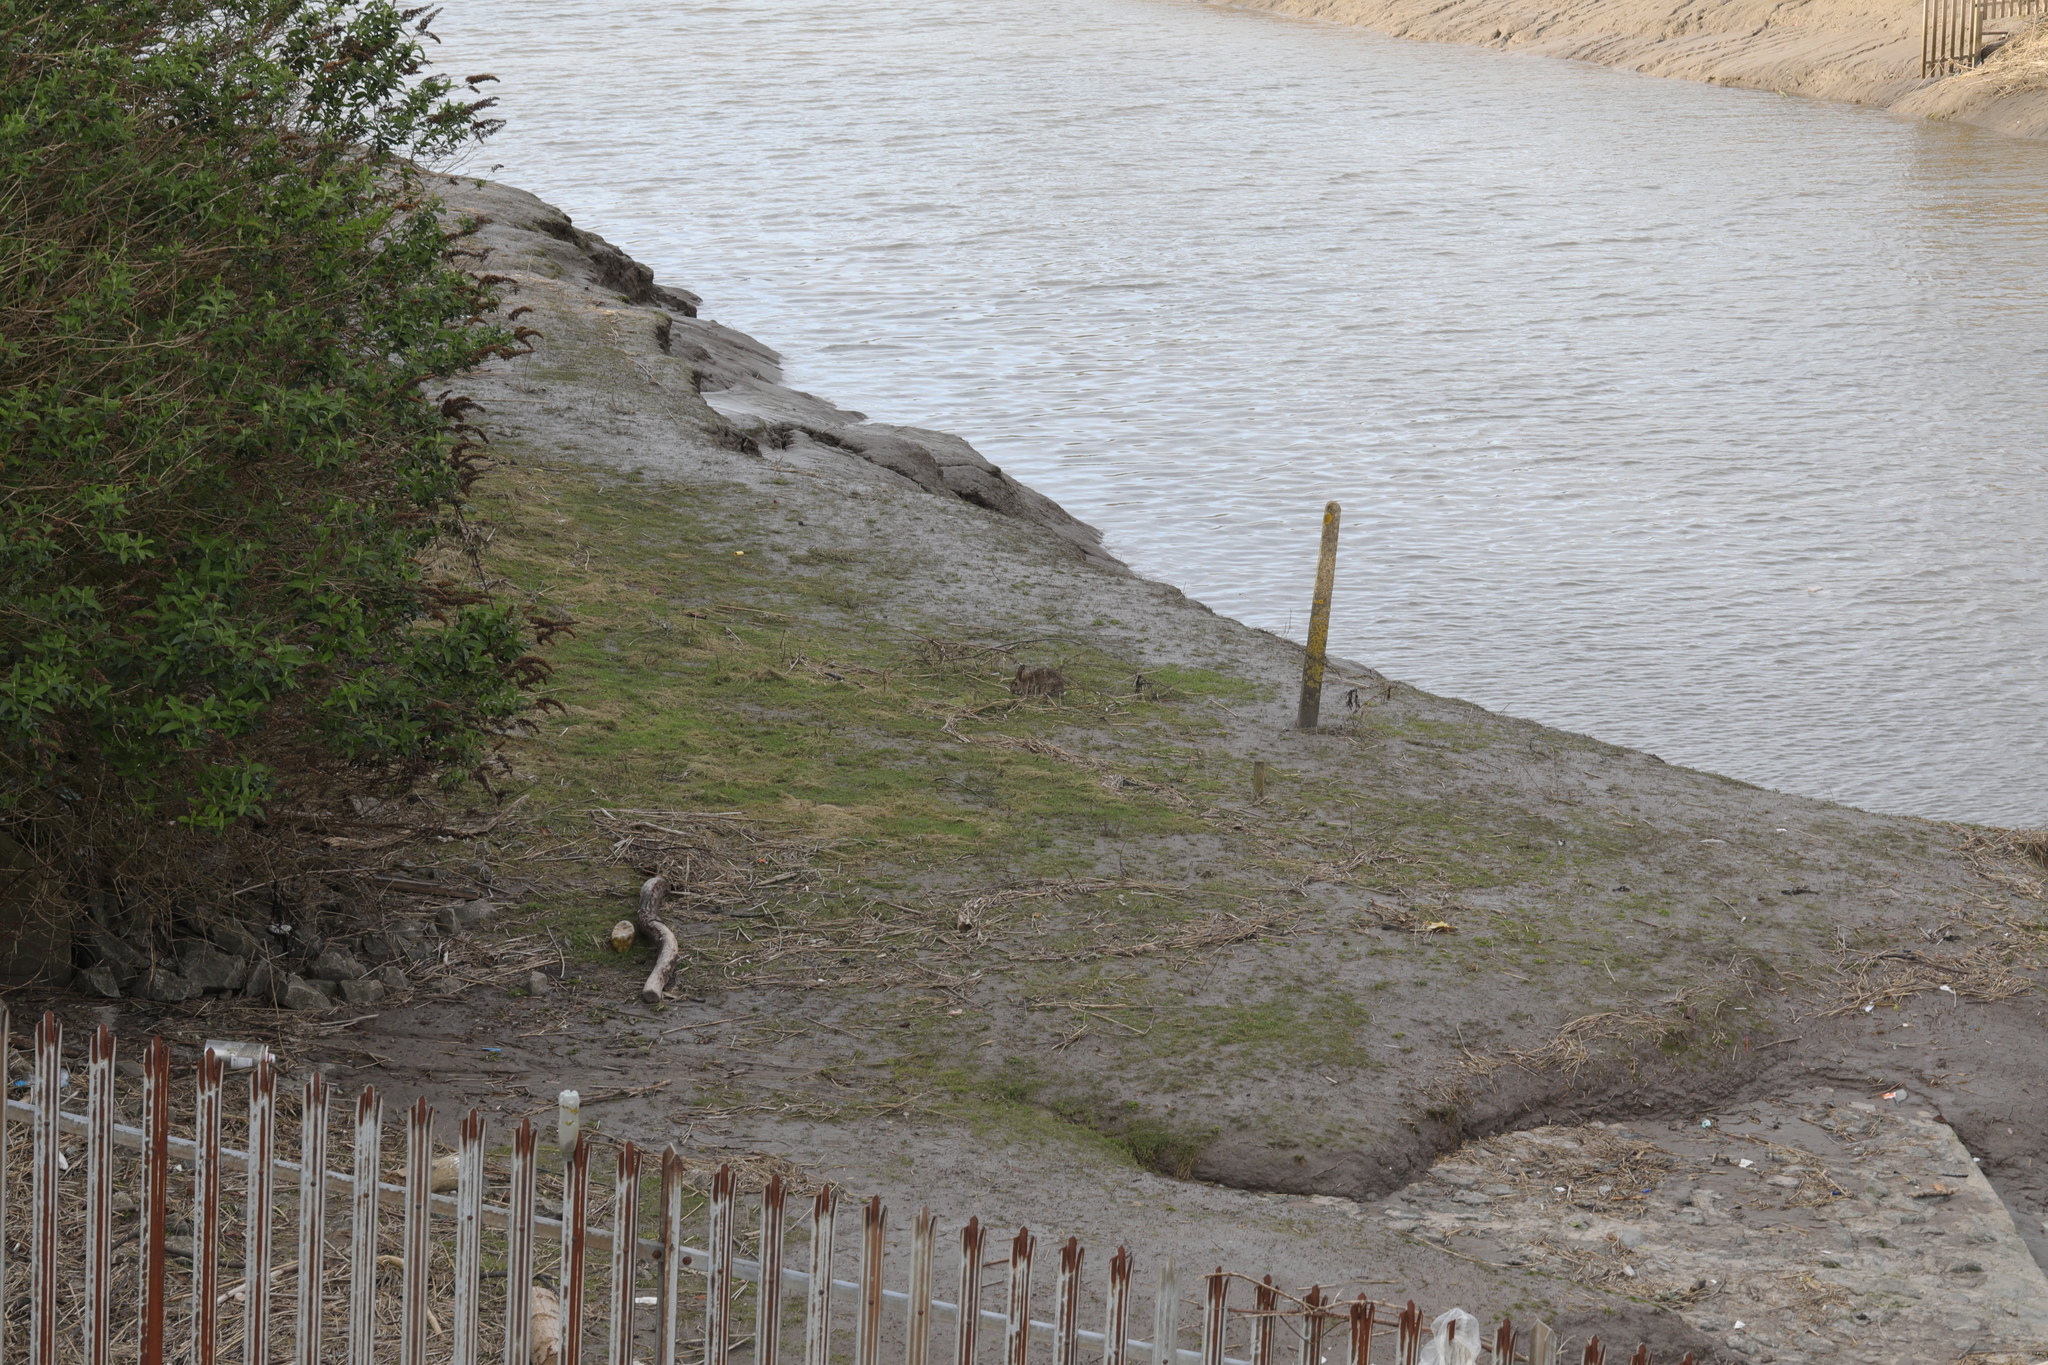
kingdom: Animalia
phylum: Chordata
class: Mammalia
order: Lagomorpha
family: Leporidae
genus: Oryctolagus
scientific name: Oryctolagus cuniculus
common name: European rabbit
